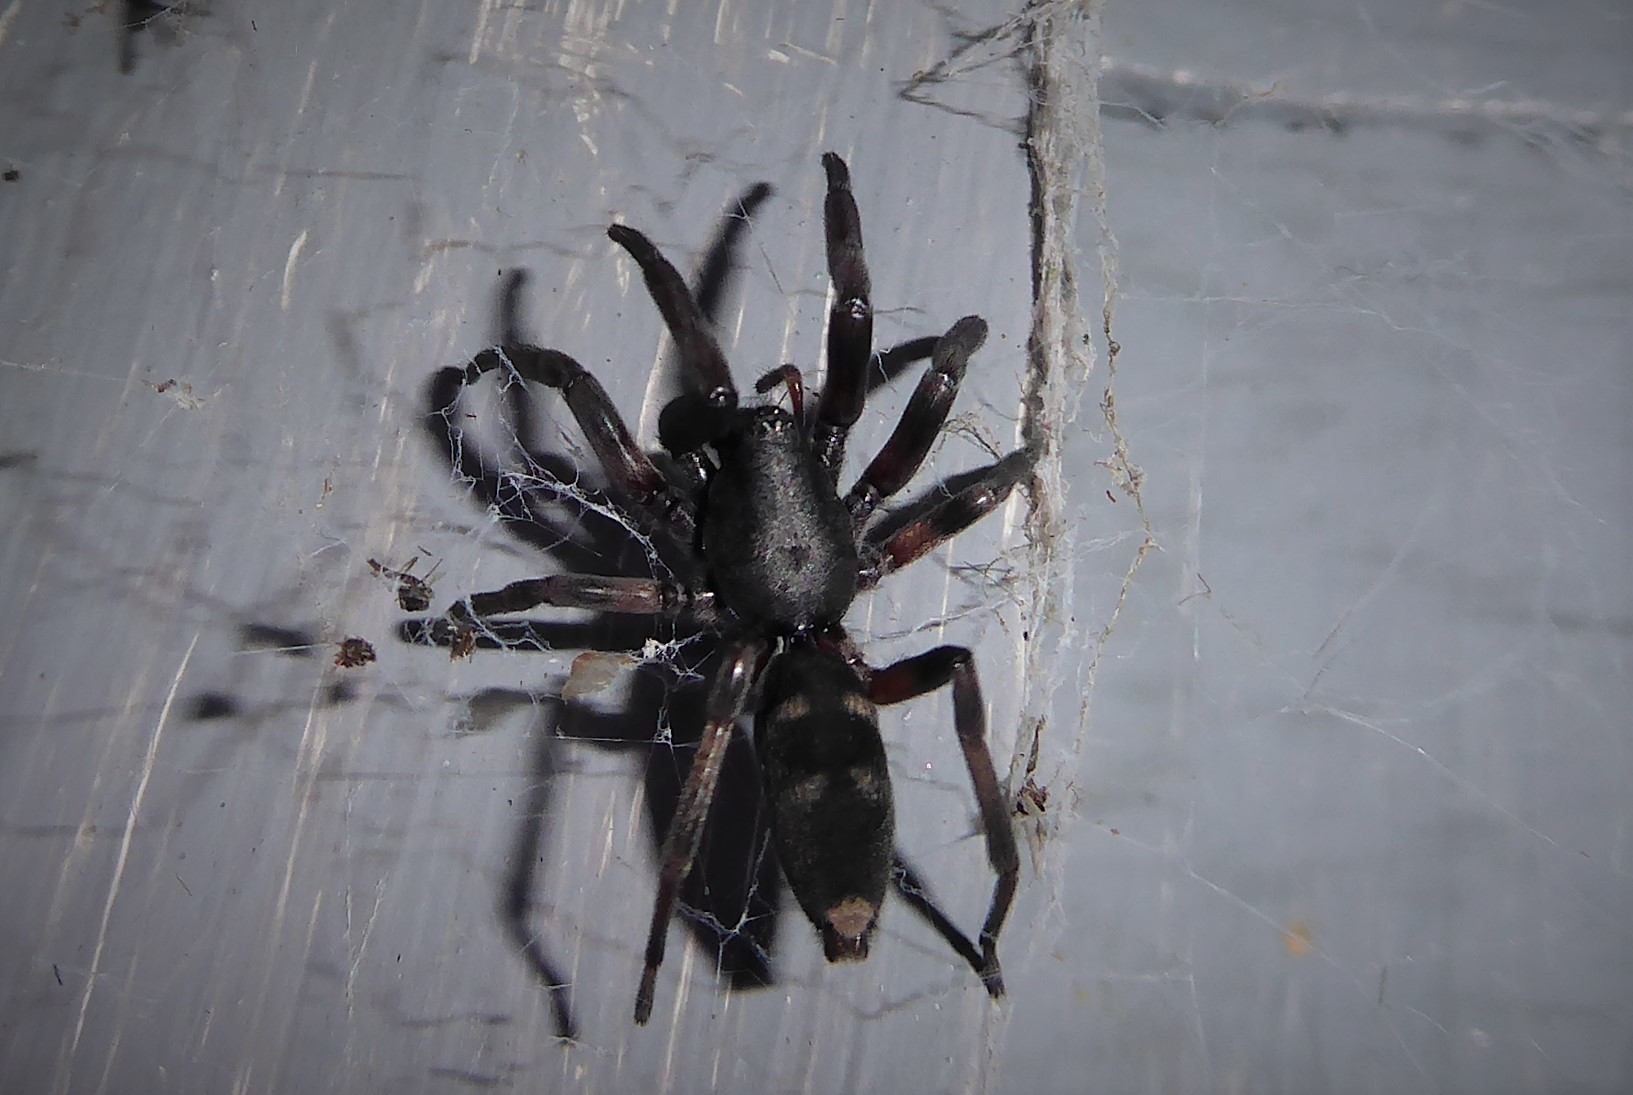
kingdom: Animalia
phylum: Arthropoda
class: Arachnida
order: Araneae
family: Lamponidae
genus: Lampona
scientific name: Lampona cylindrata
